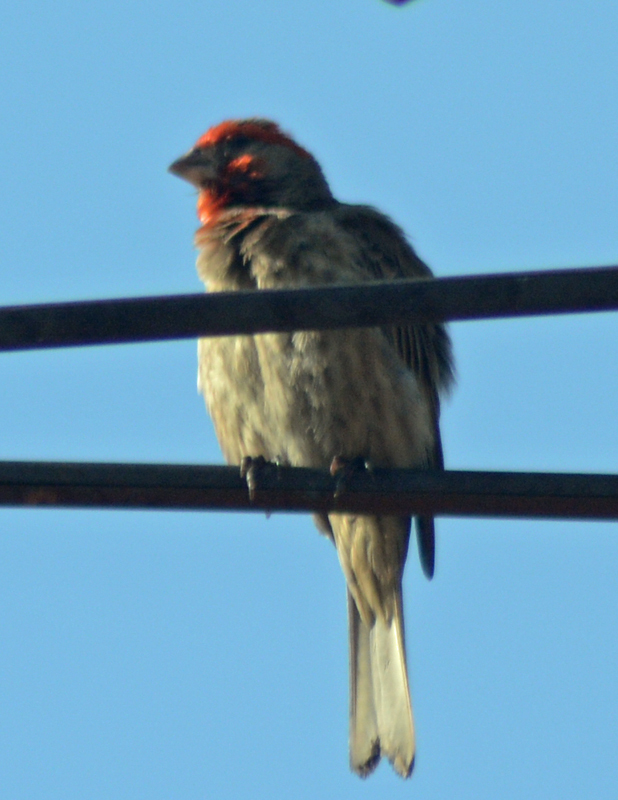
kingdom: Animalia
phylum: Chordata
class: Aves
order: Passeriformes
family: Fringillidae
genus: Haemorhous
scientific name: Haemorhous mexicanus
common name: House finch
